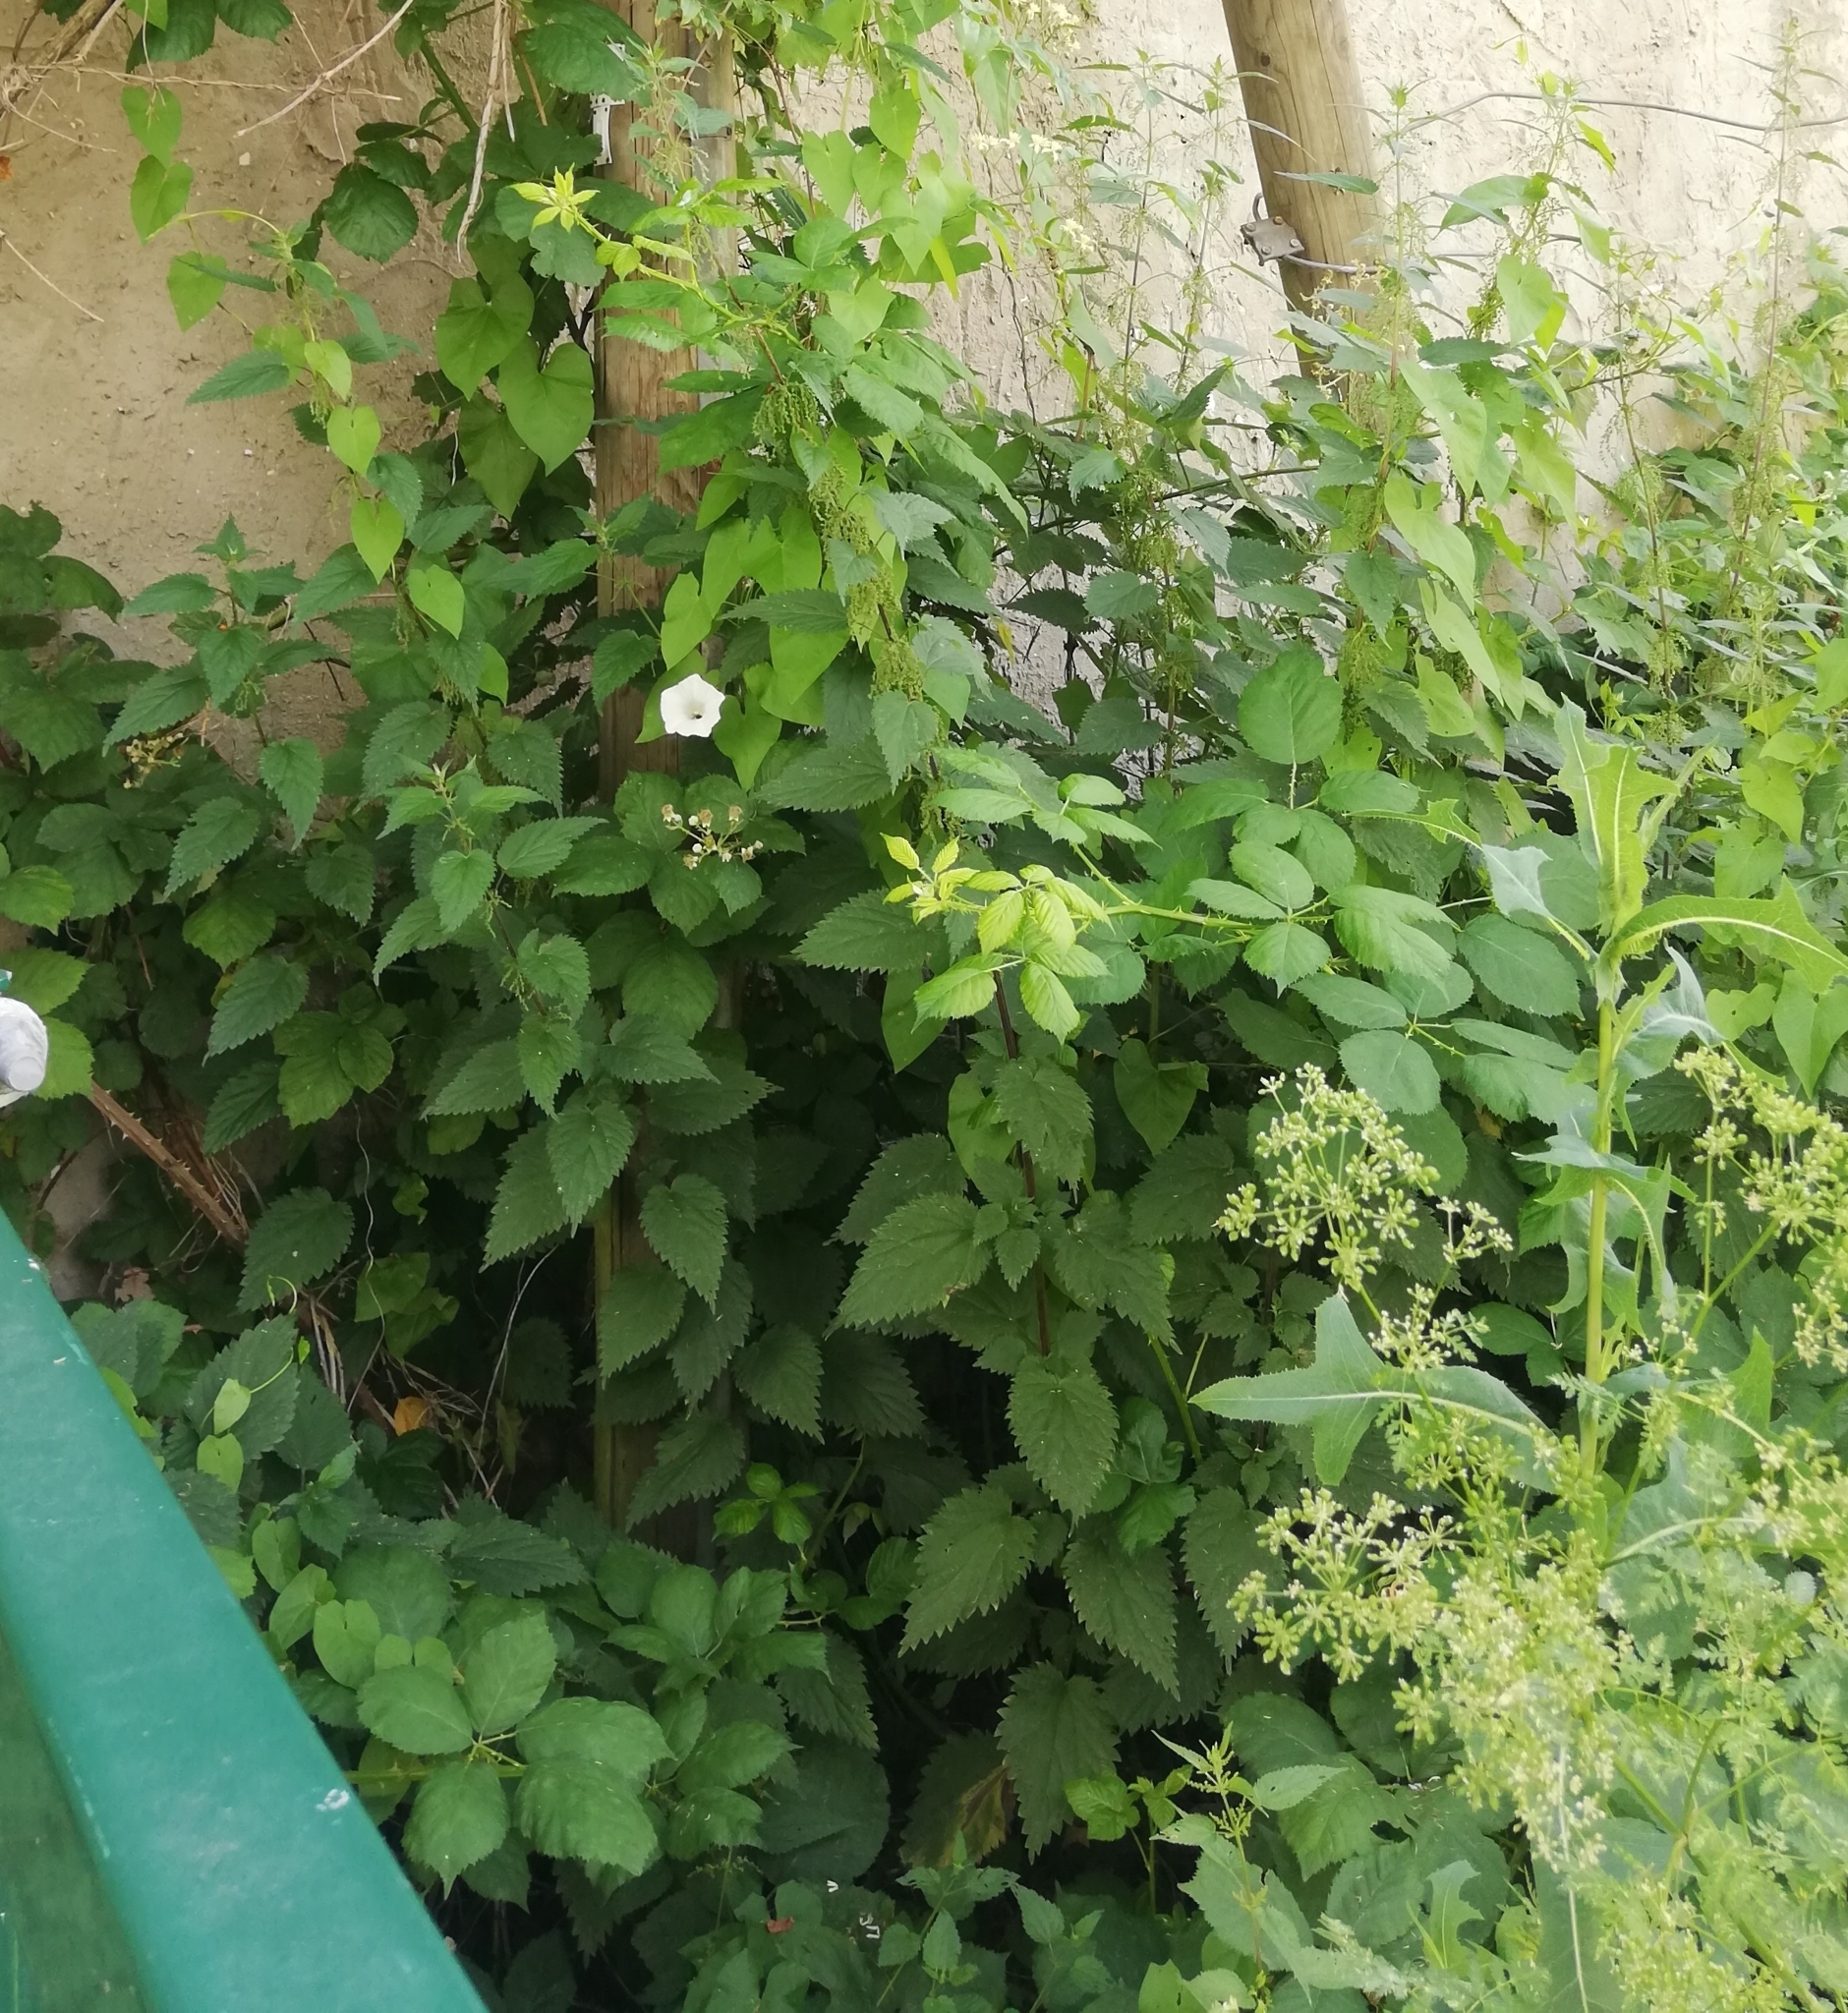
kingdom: Plantae
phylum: Tracheophyta
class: Magnoliopsida
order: Rosales
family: Urticaceae
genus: Urtica
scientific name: Urtica dioica
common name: Common nettle
